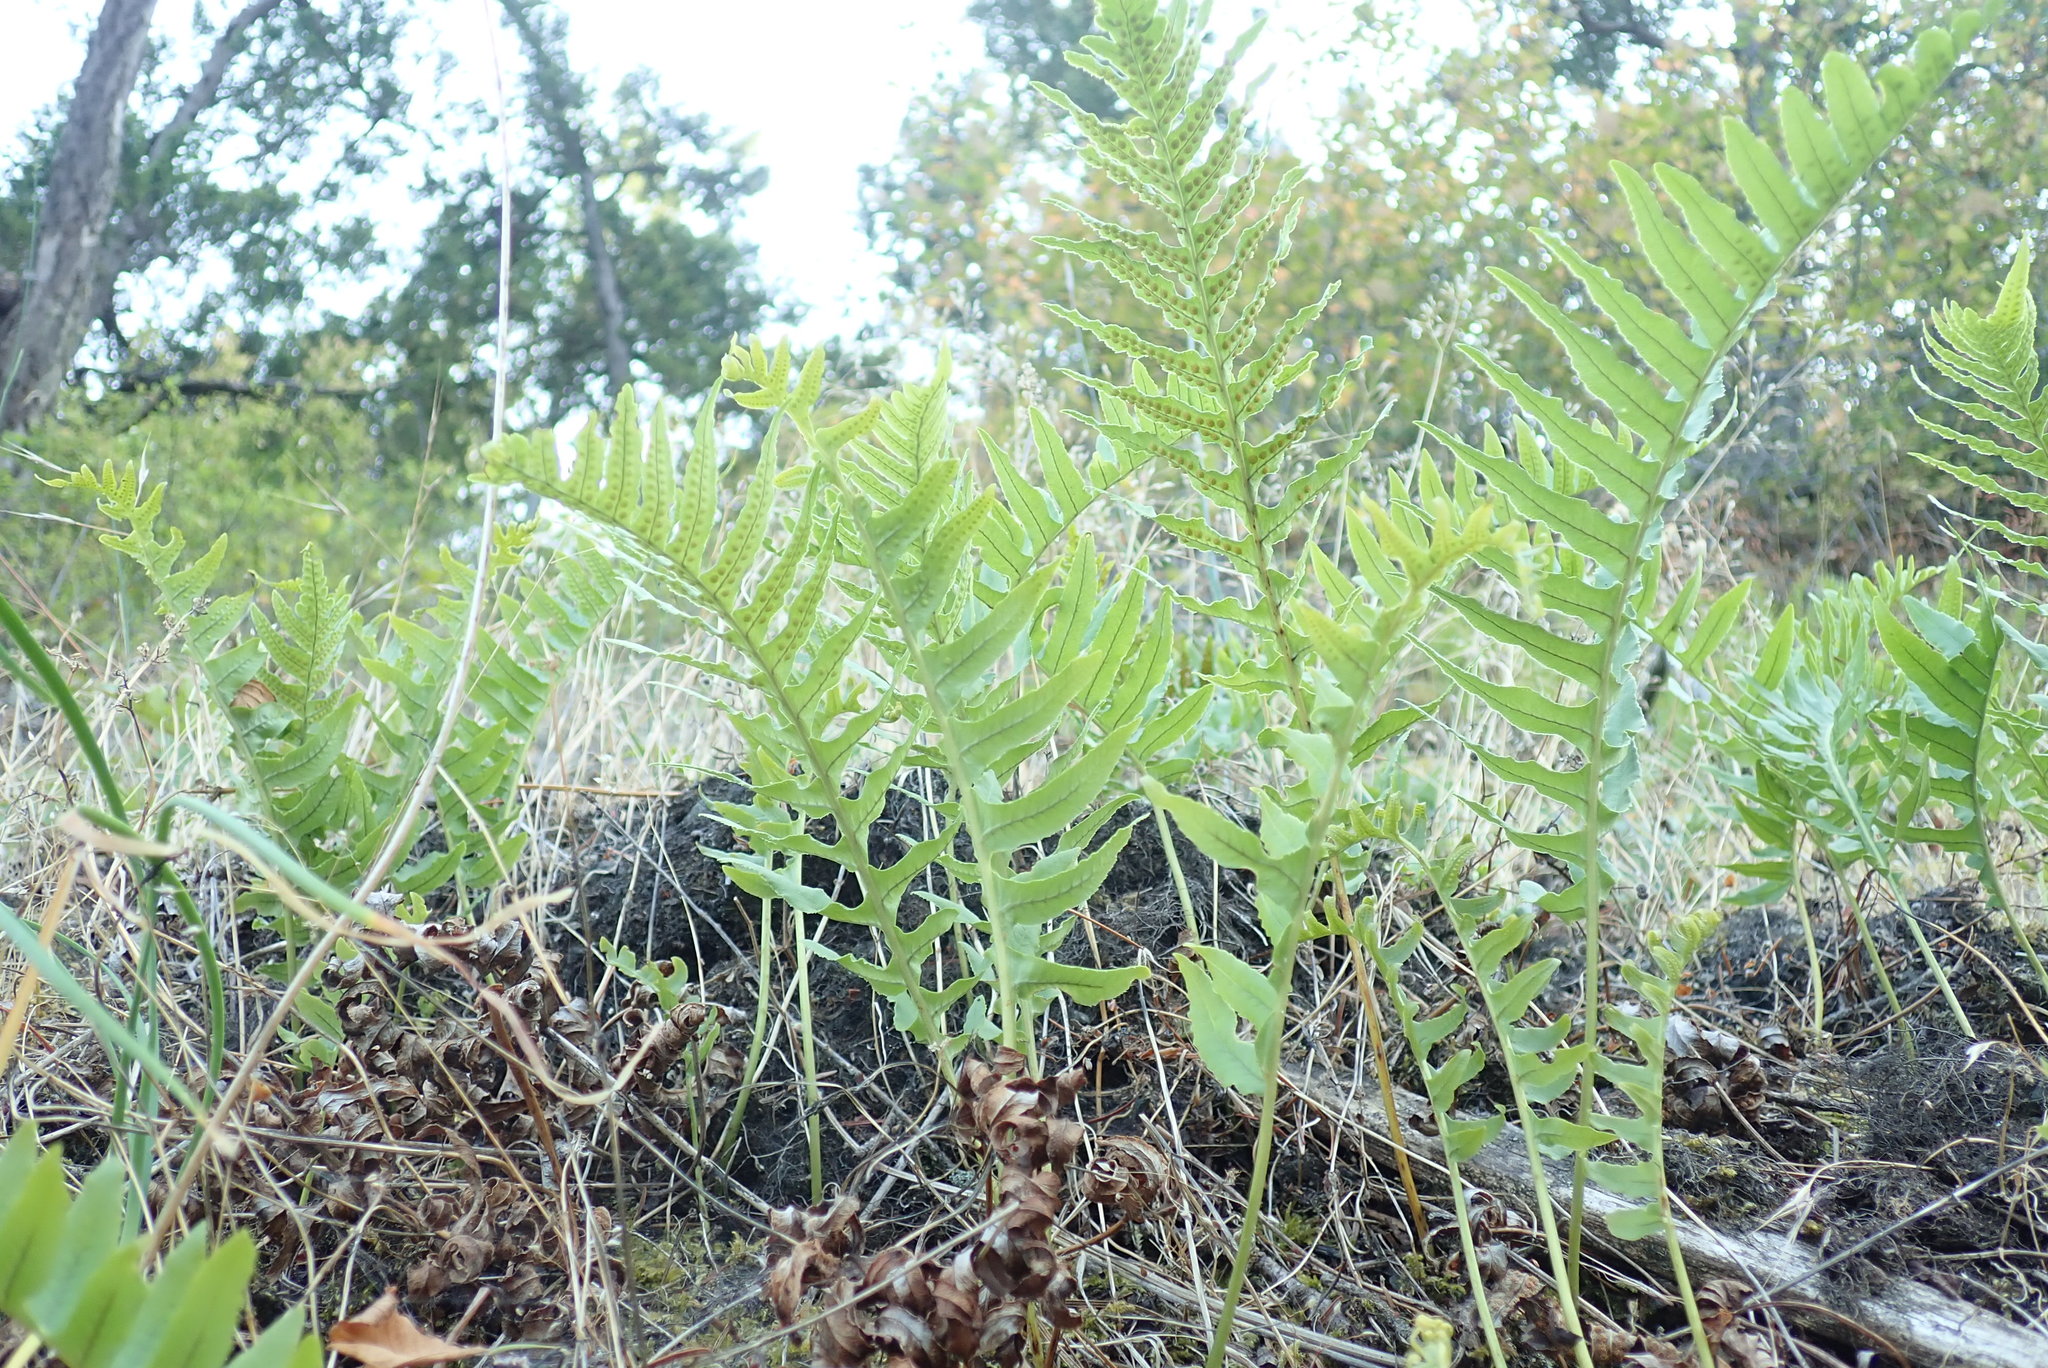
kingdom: Plantae
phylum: Tracheophyta
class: Polypodiopsida
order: Polypodiales
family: Polypodiaceae
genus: Polypodium
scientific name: Polypodium glycyrrhiza
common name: Licorice fern
